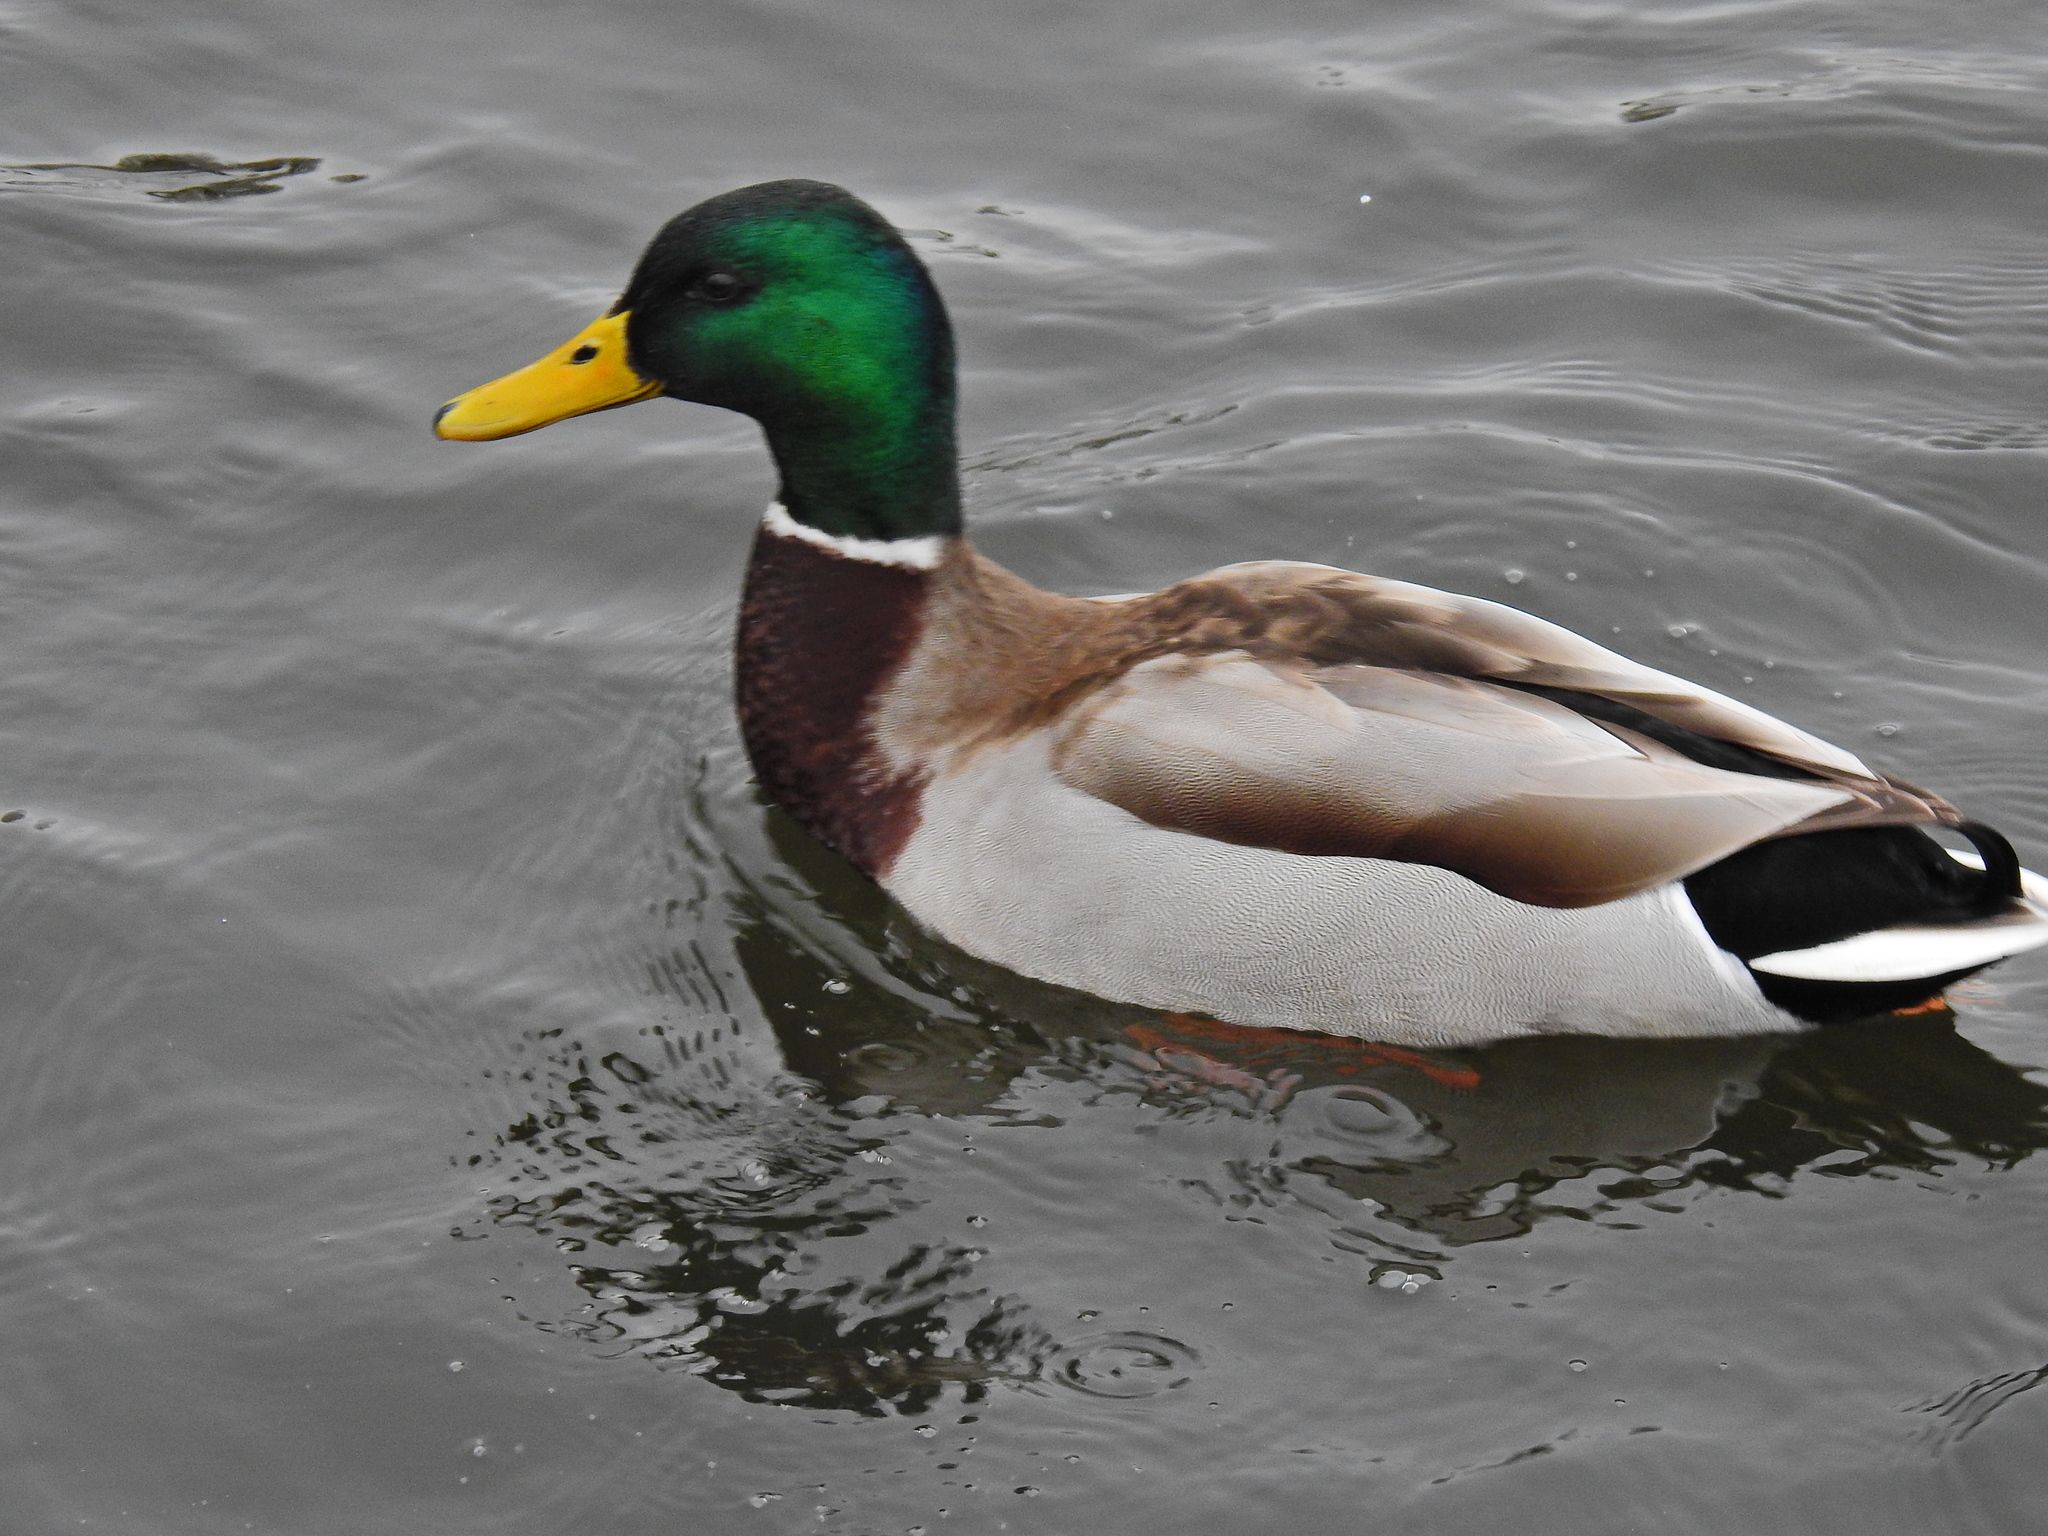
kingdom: Animalia
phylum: Chordata
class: Aves
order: Anseriformes
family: Anatidae
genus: Anas
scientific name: Anas platyrhynchos
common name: Mallard
